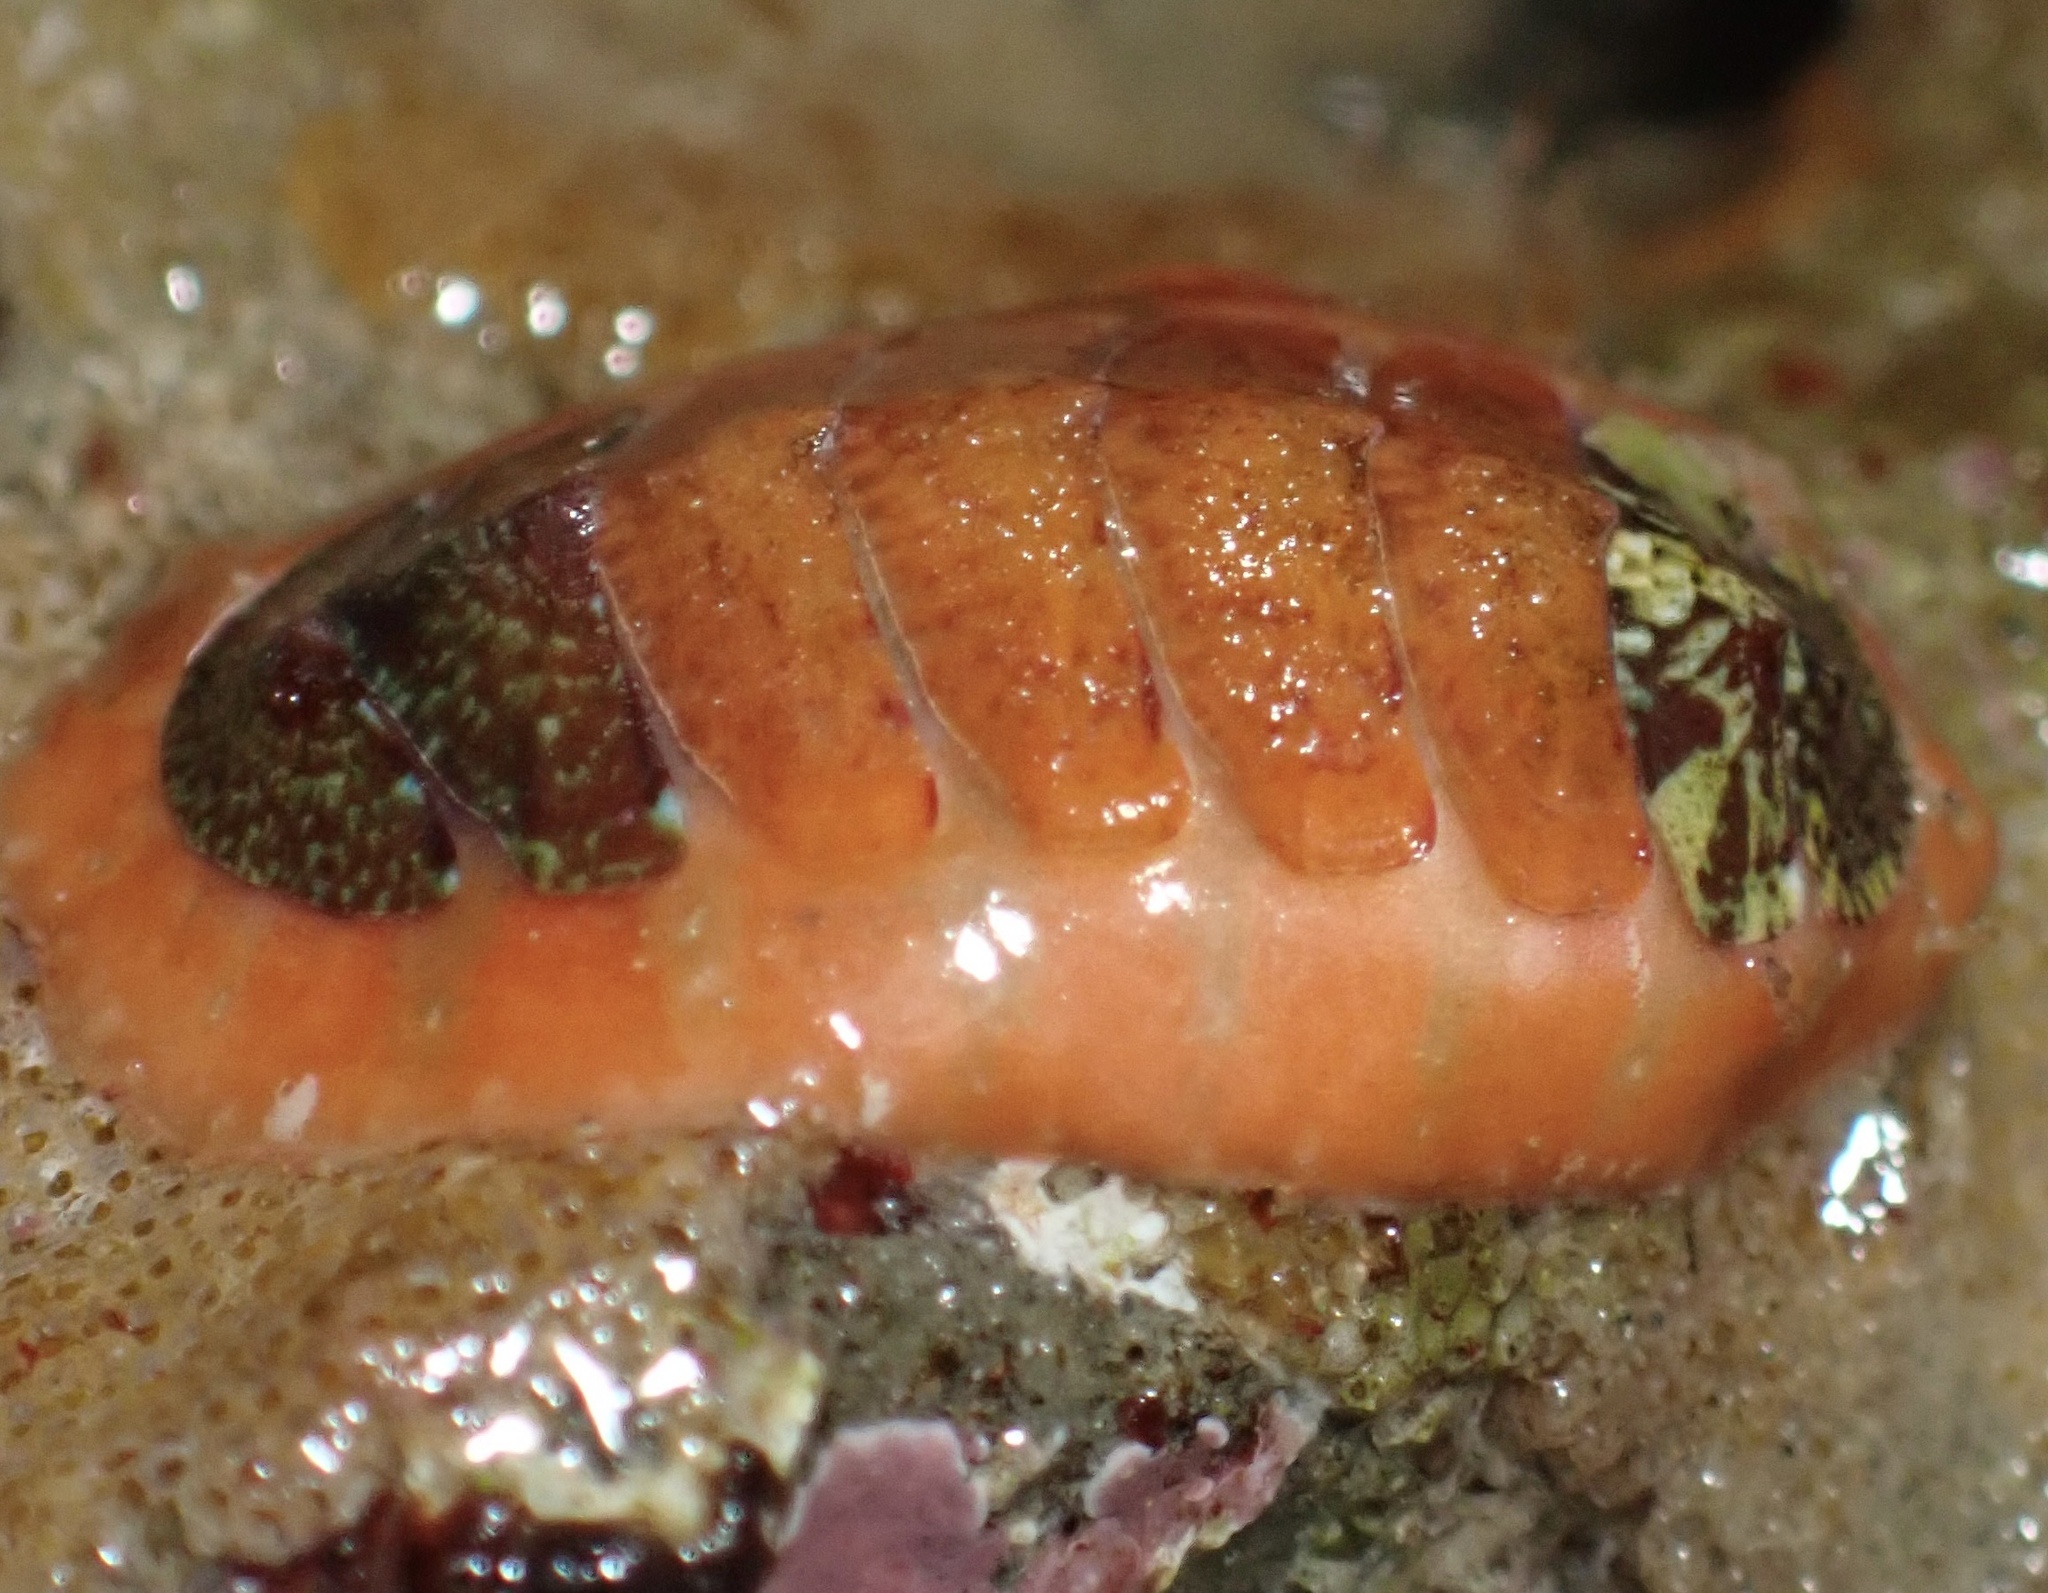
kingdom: Animalia
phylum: Mollusca
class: Polyplacophora
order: Chitonida
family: Mopaliidae
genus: Dendrochiton
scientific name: Dendrochiton flectens
